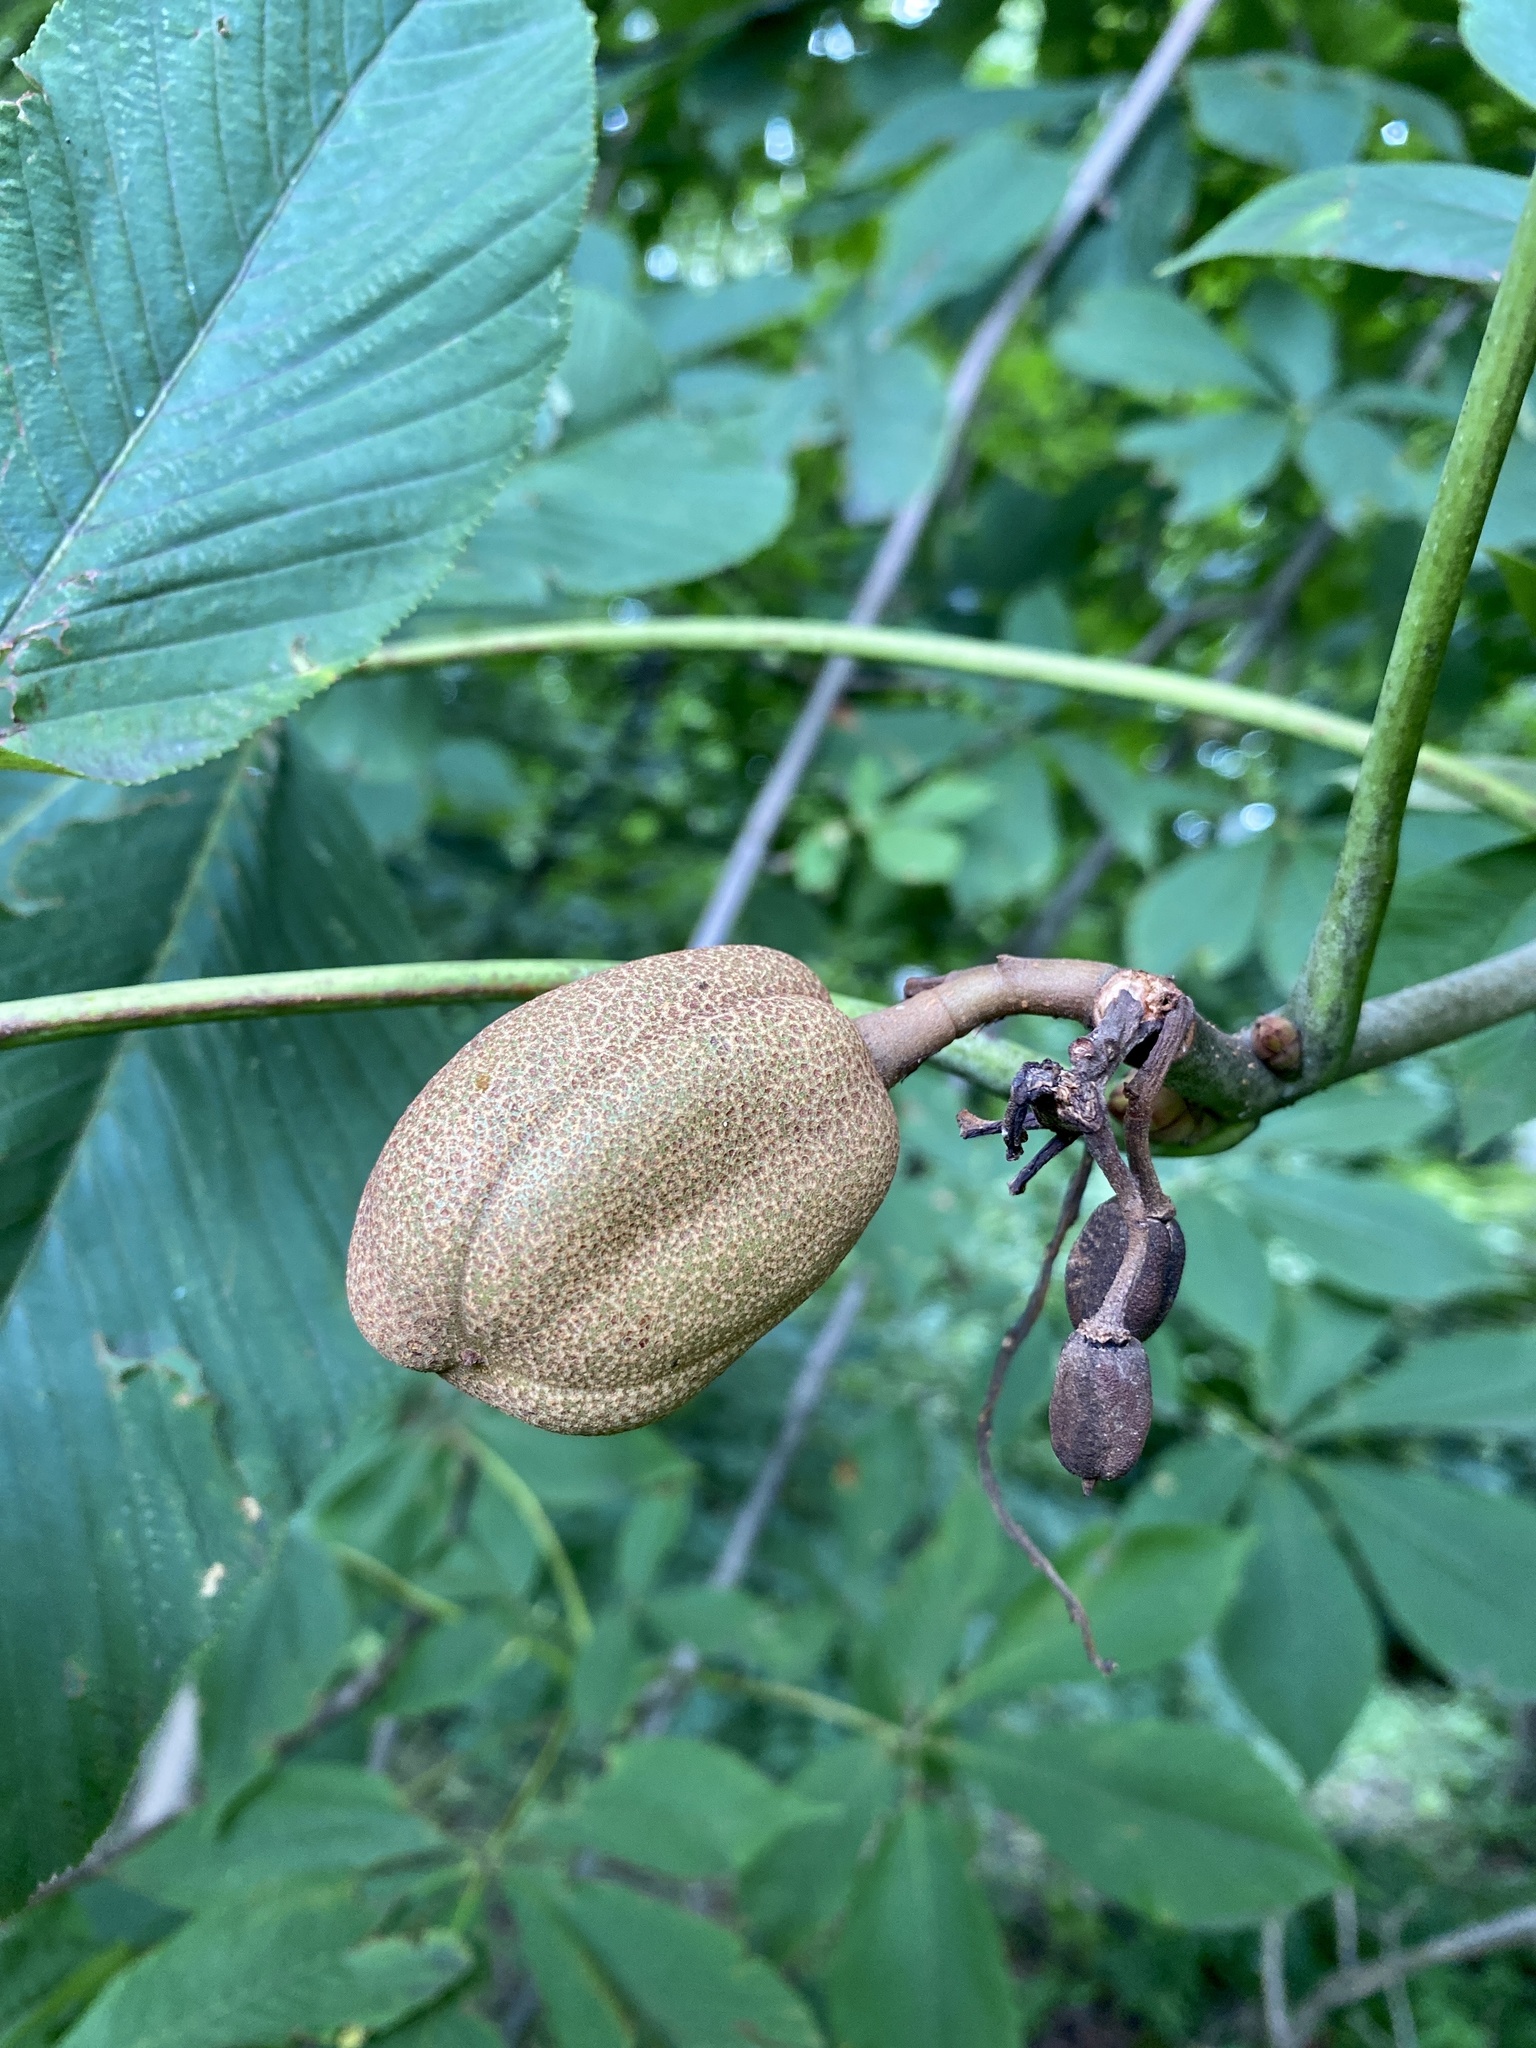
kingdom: Plantae
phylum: Tracheophyta
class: Magnoliopsida
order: Sapindales
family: Sapindaceae
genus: Aesculus
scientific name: Aesculus flava
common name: Yellow buckeye
